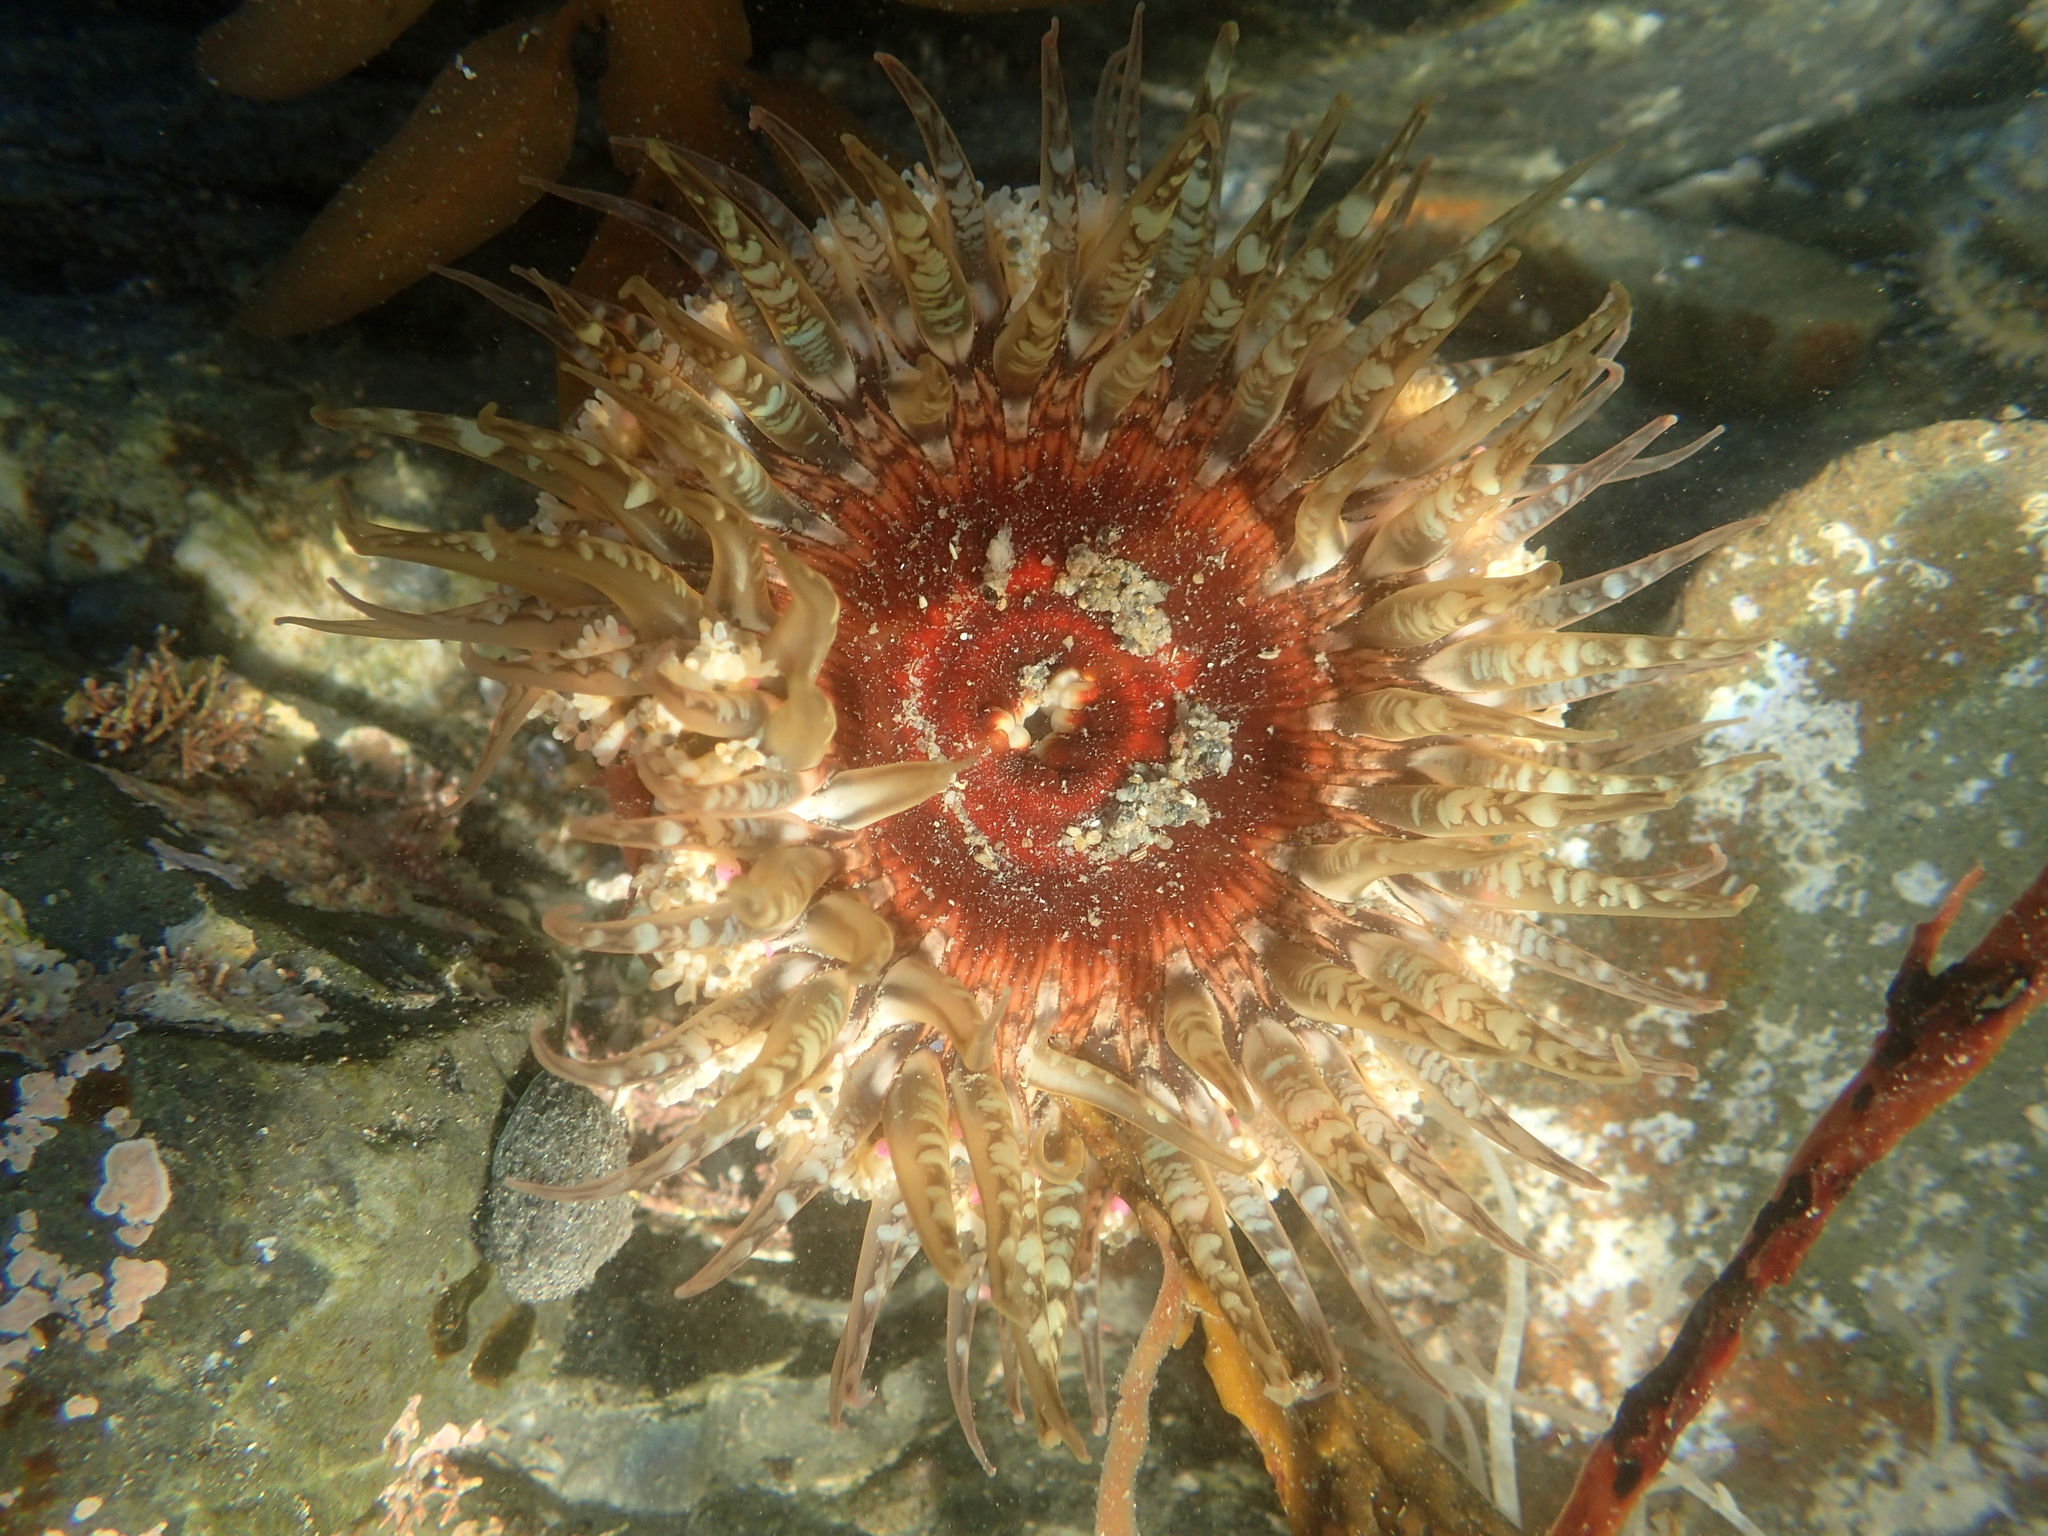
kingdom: Animalia
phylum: Cnidaria
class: Anthozoa
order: Actiniaria
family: Actiniidae
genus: Oulactis
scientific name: Oulactis muscosa
